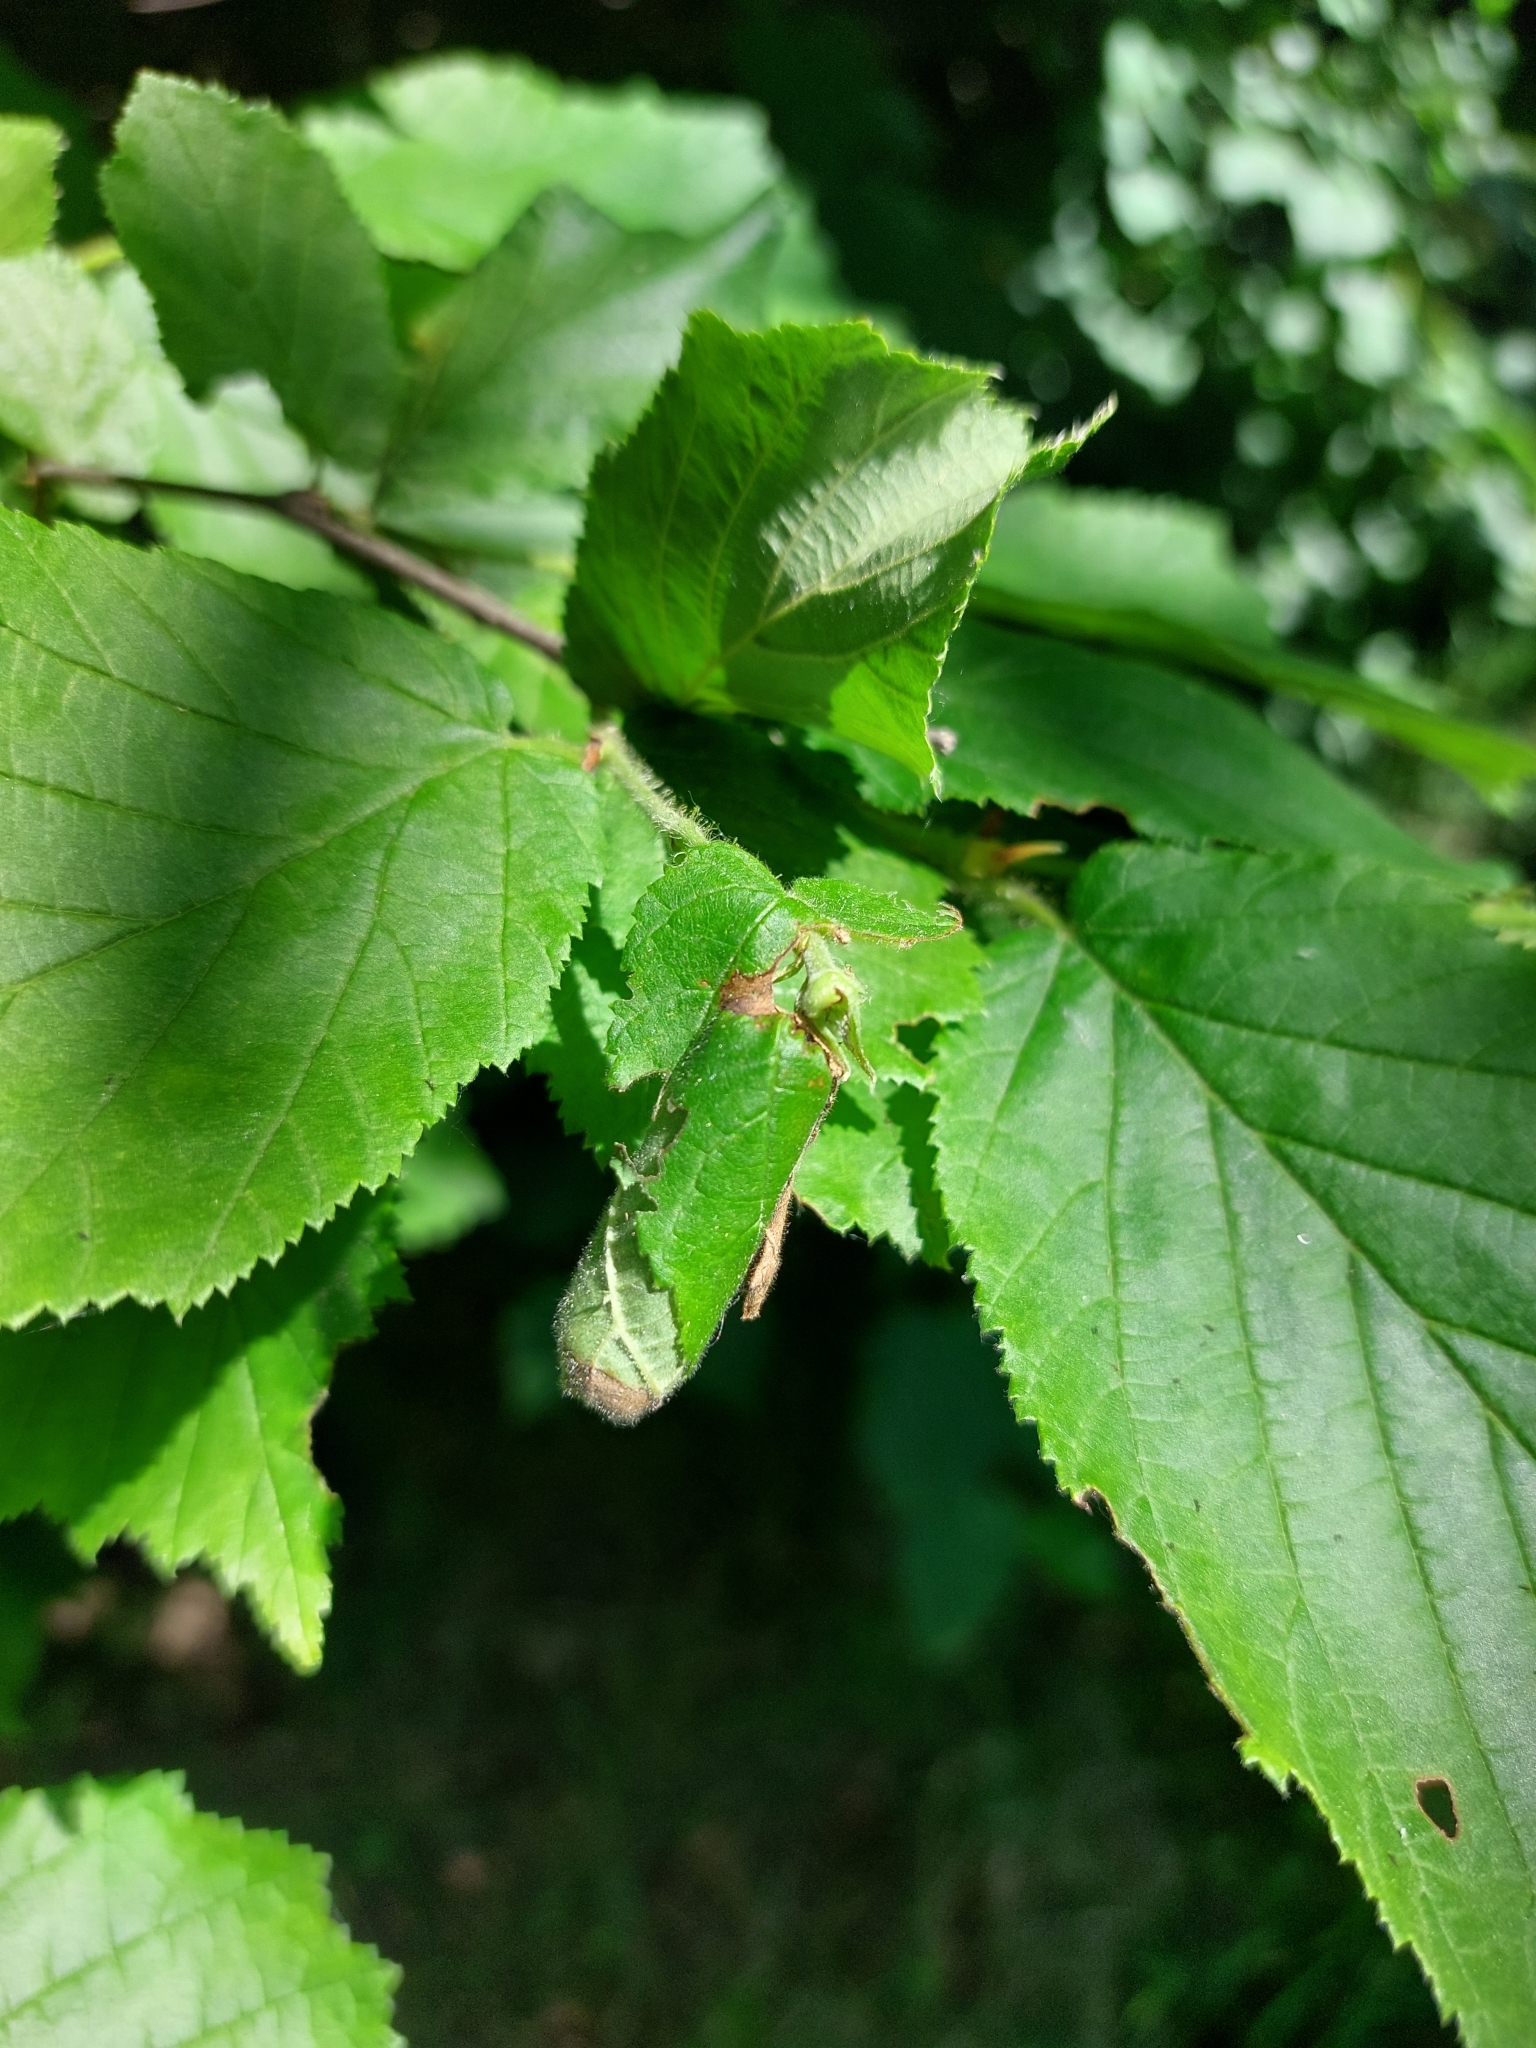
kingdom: Animalia
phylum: Arthropoda
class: Insecta
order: Coleoptera
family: Attelabidae
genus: Apoderus
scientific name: Apoderus coryli
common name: Hazel leaf roller
